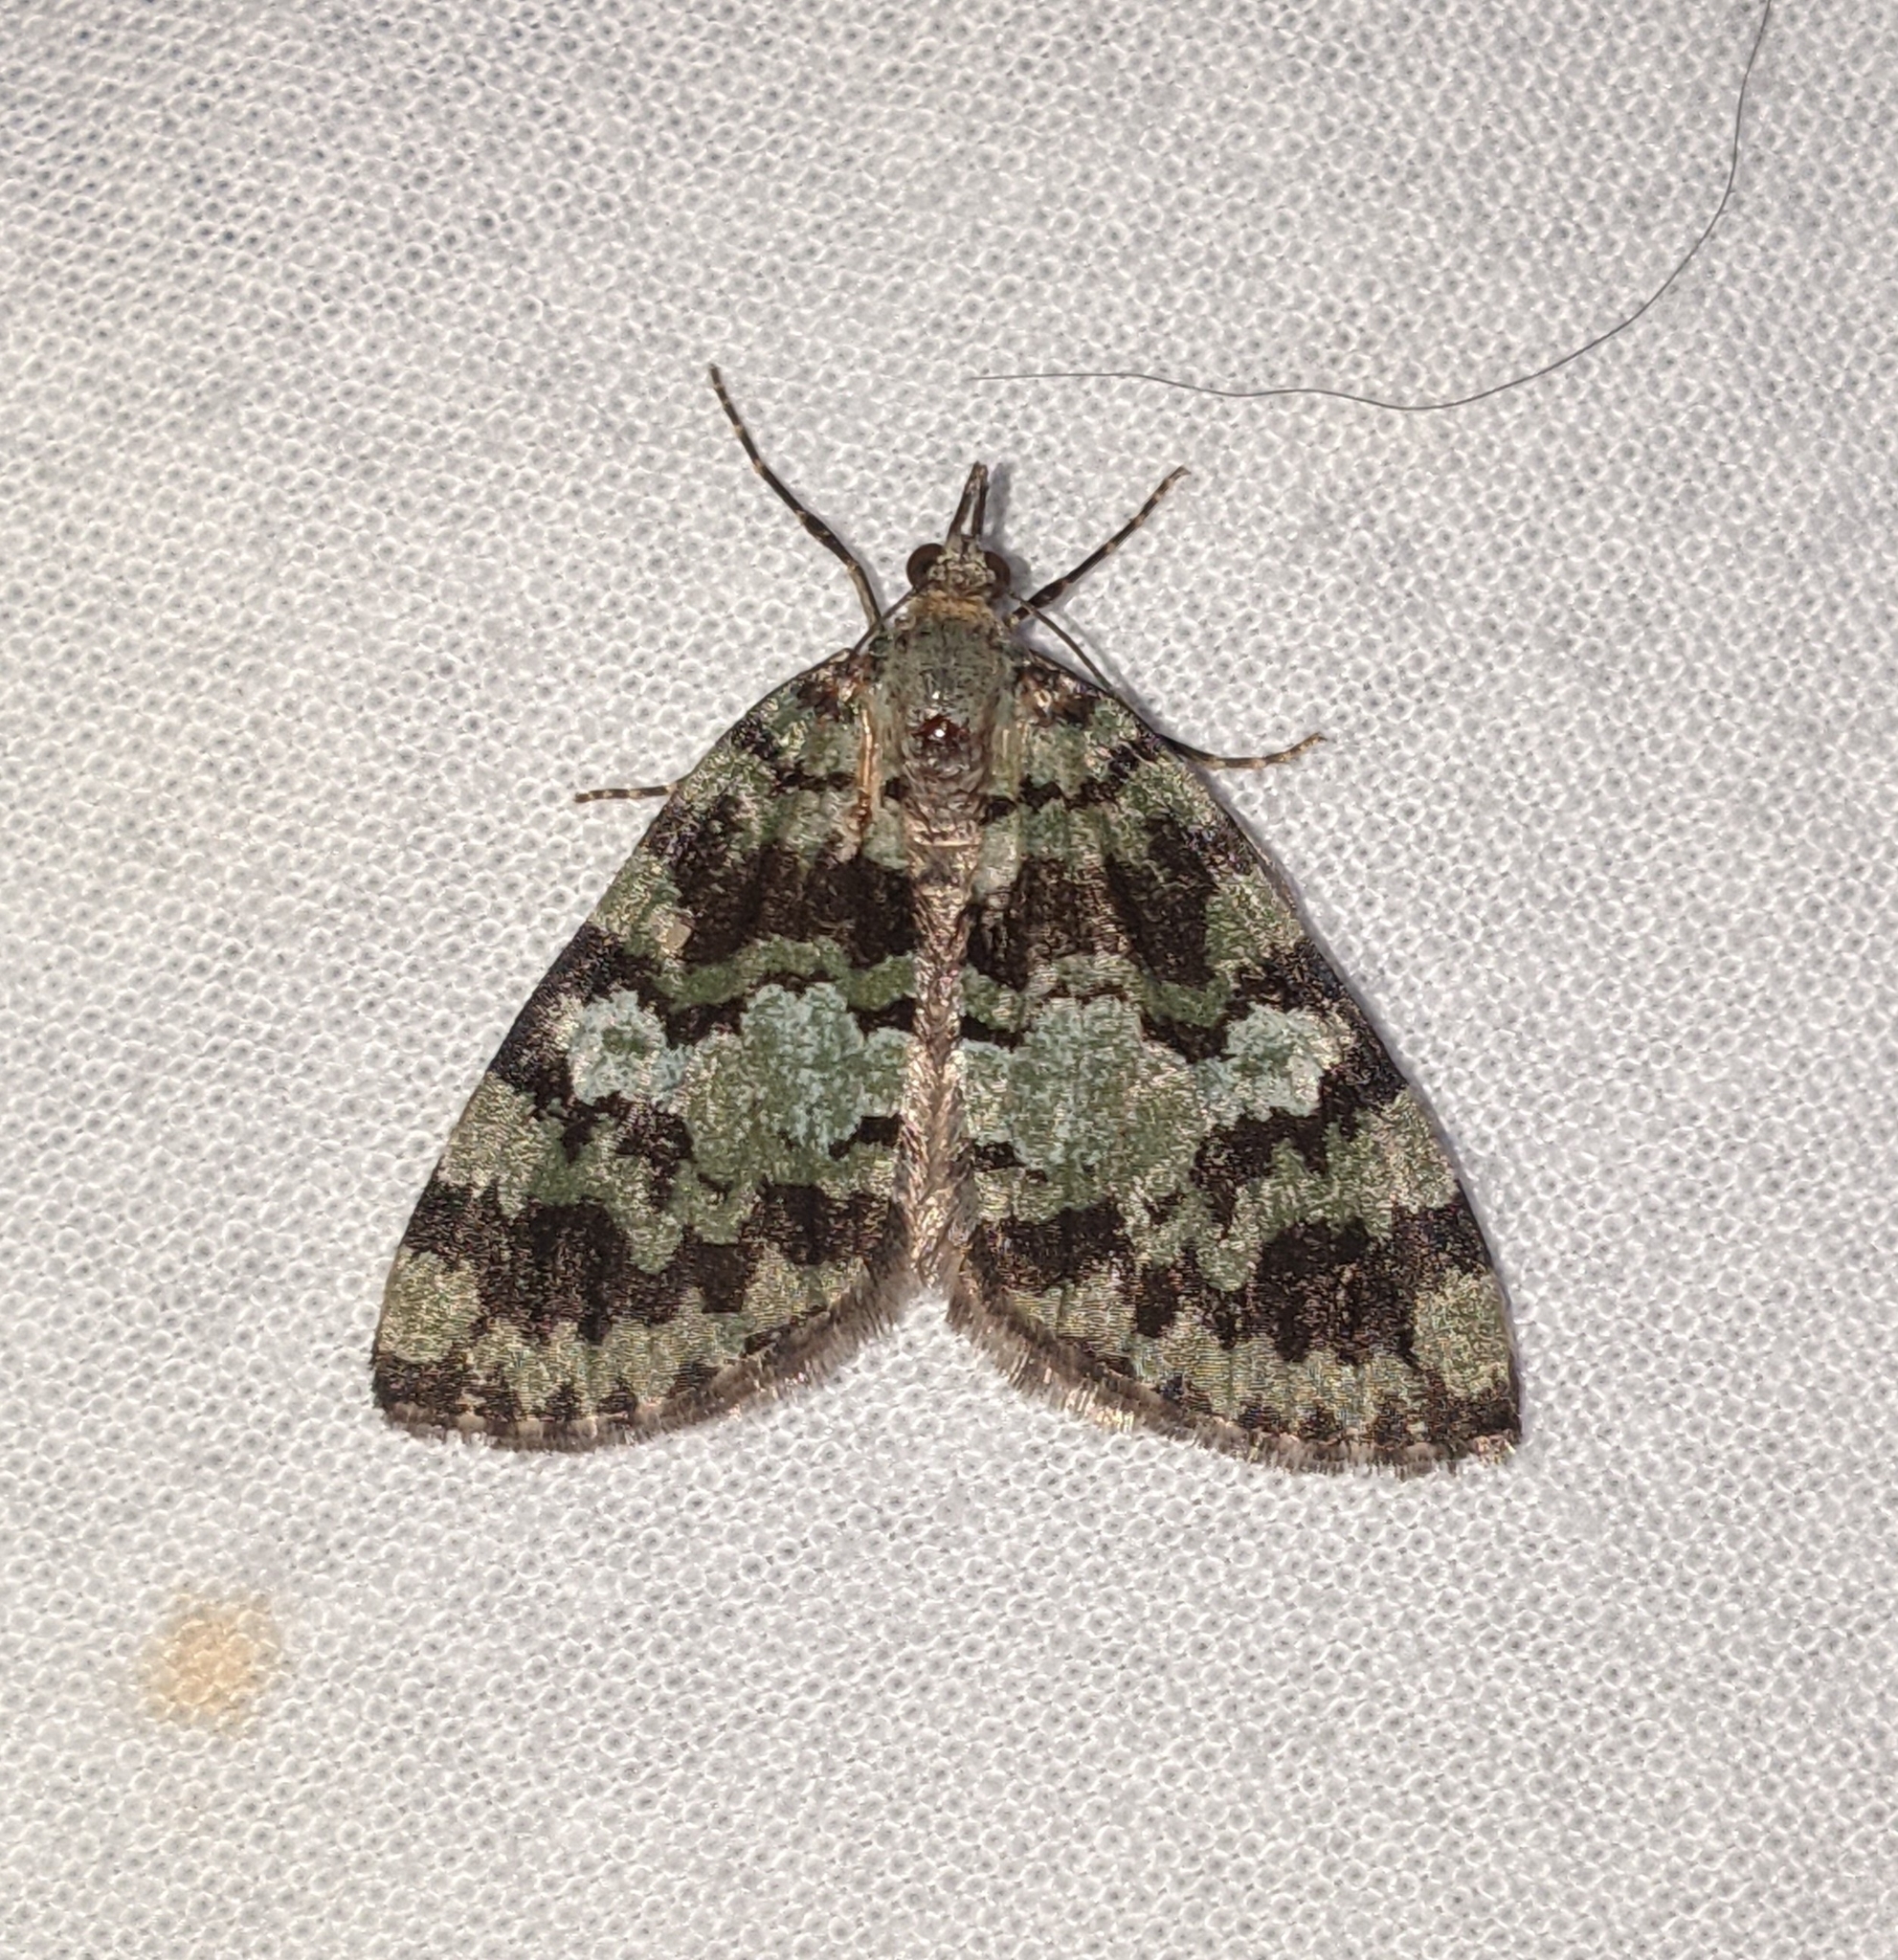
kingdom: Animalia
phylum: Arthropoda
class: Insecta
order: Lepidoptera
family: Geometridae
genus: Hydriomena
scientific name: Hydriomena speciosata
